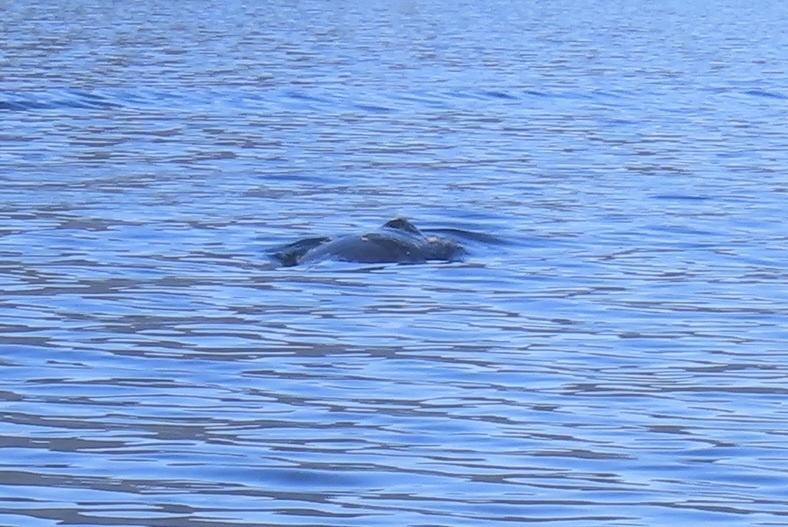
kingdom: Animalia
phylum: Chordata
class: Mammalia
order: Cetacea
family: Balaenopteridae
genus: Megaptera
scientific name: Megaptera novaeangliae
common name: Humpback whale
